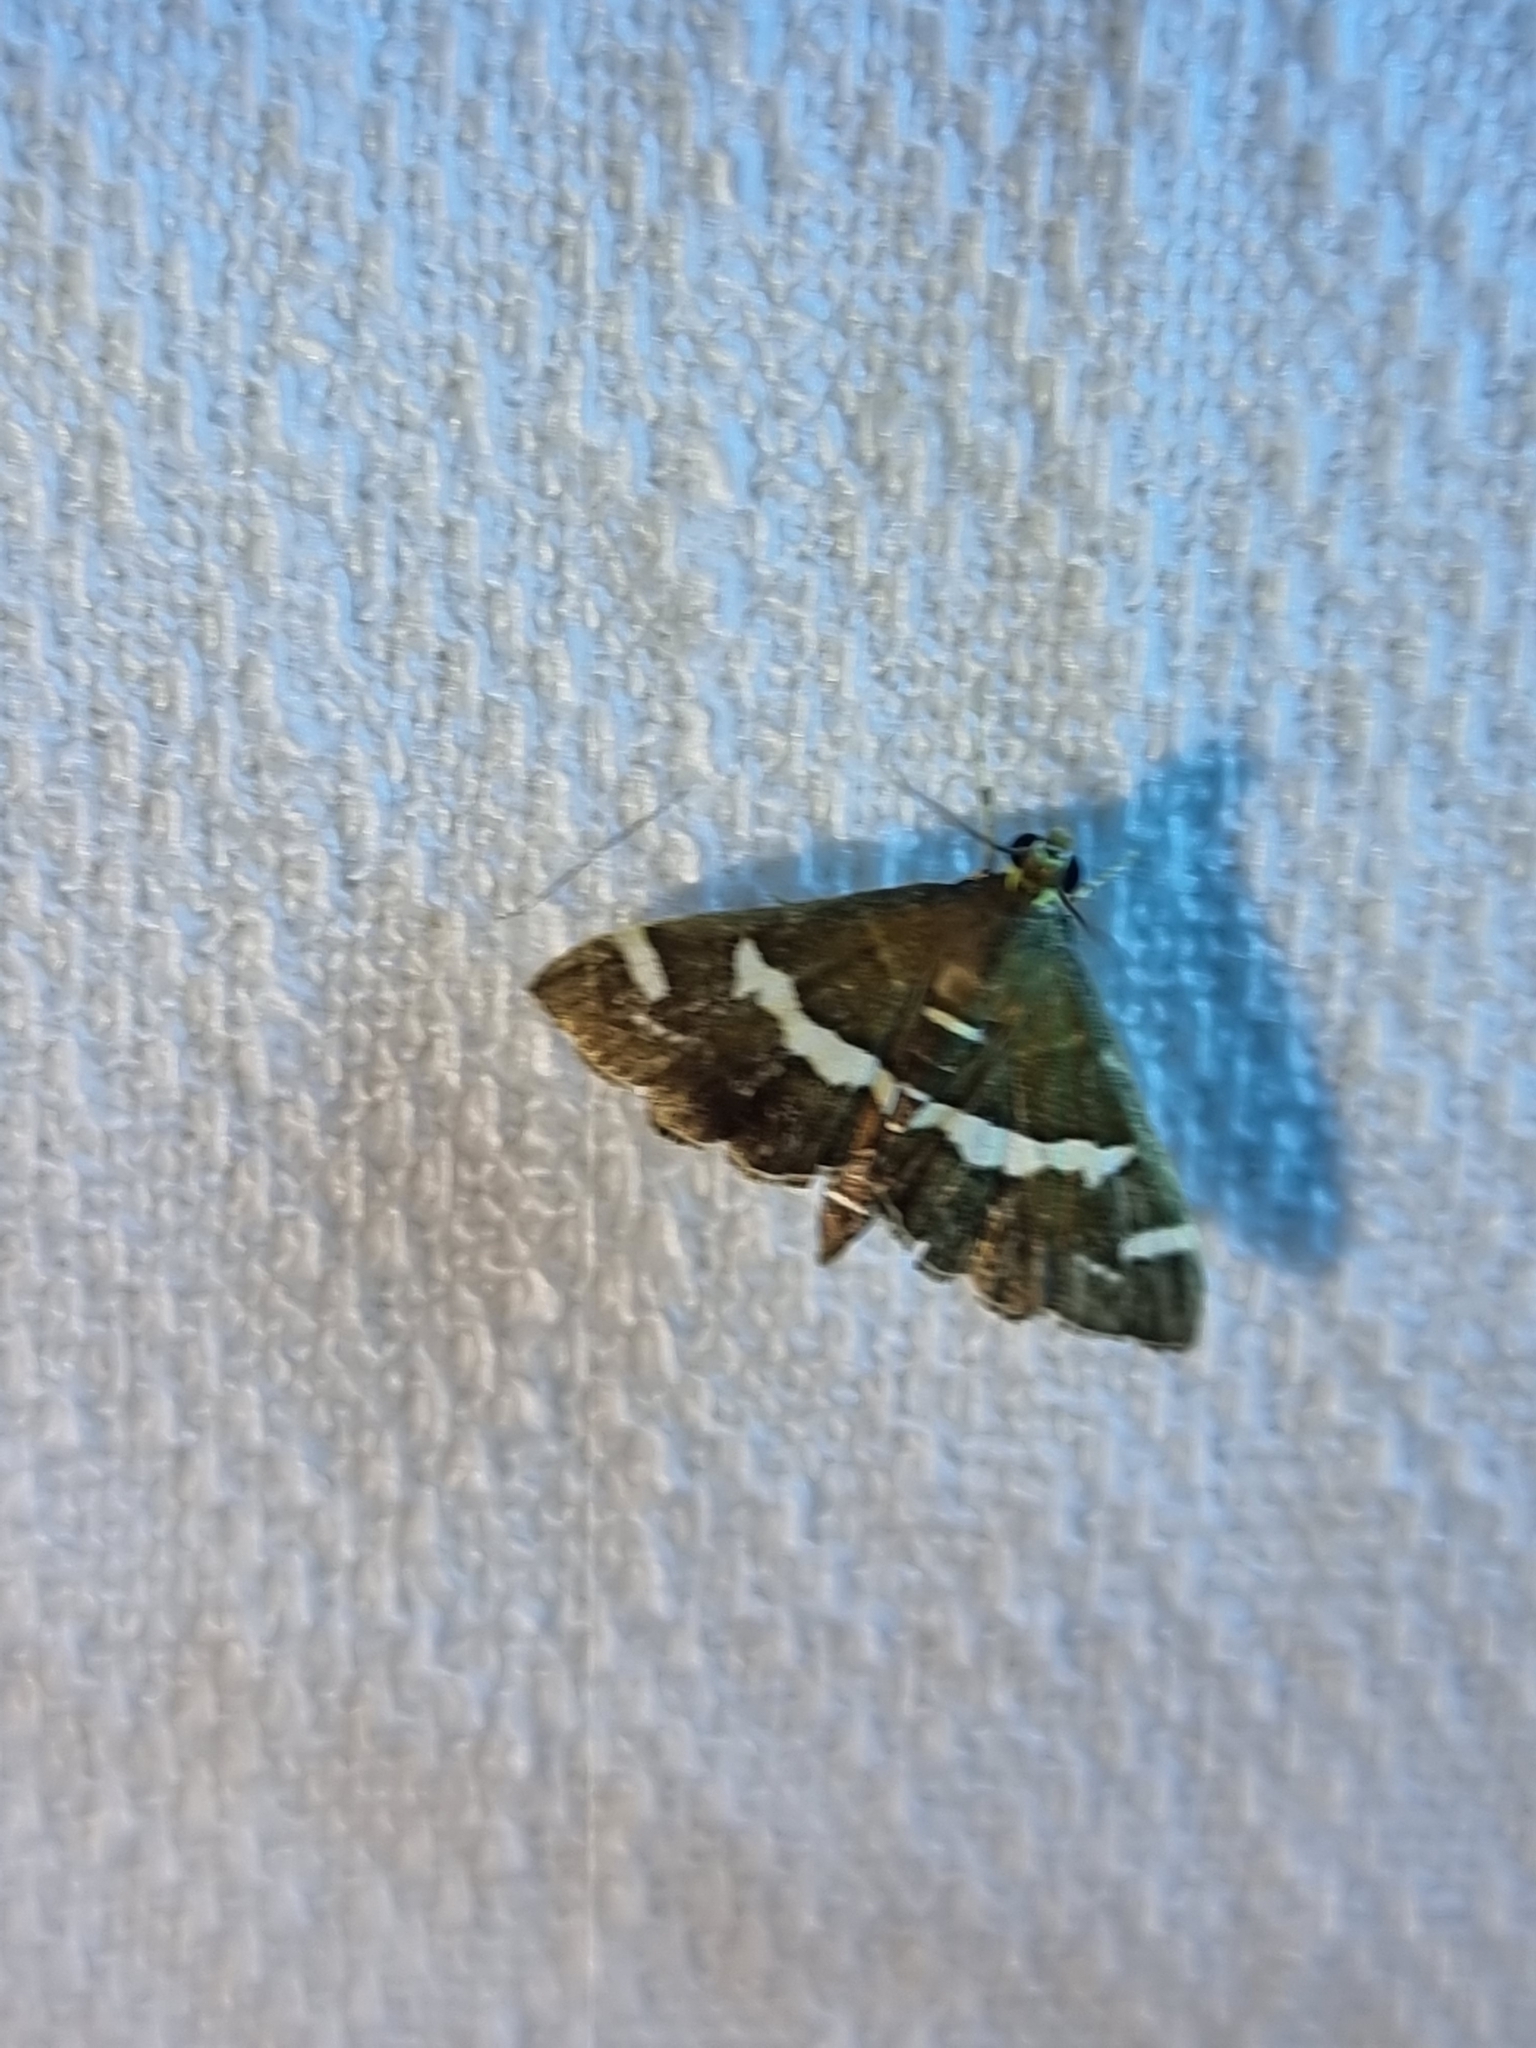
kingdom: Animalia
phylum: Arthropoda
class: Insecta
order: Lepidoptera
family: Crambidae
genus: Spoladea
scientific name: Spoladea recurvalis
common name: Beet webworm moth
